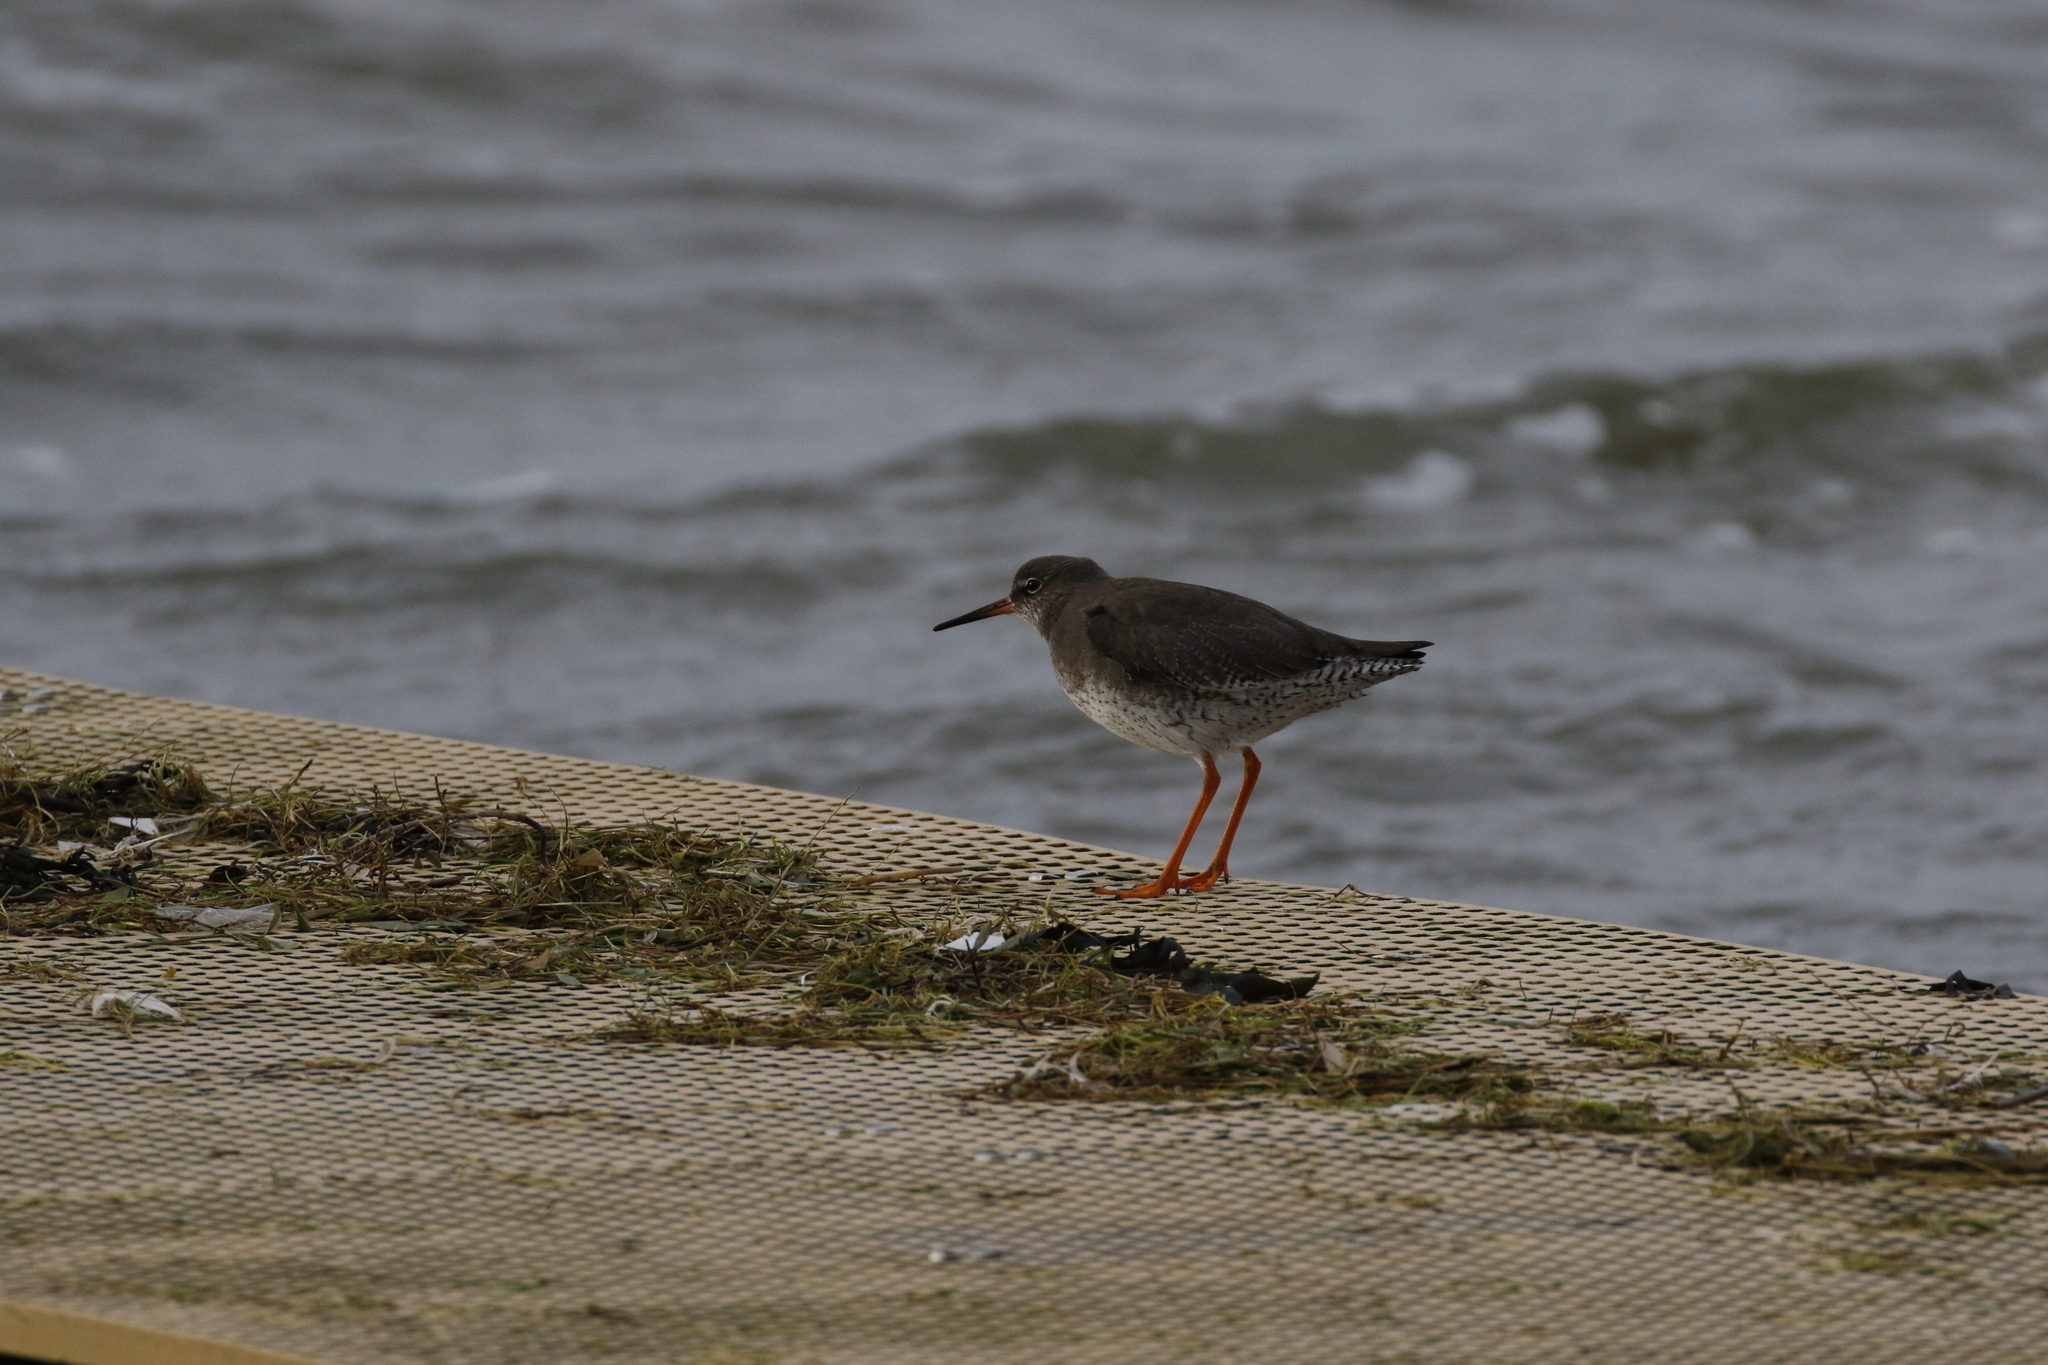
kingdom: Animalia
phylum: Chordata
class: Aves
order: Charadriiformes
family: Scolopacidae
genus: Tringa
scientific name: Tringa totanus
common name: Common redshank
